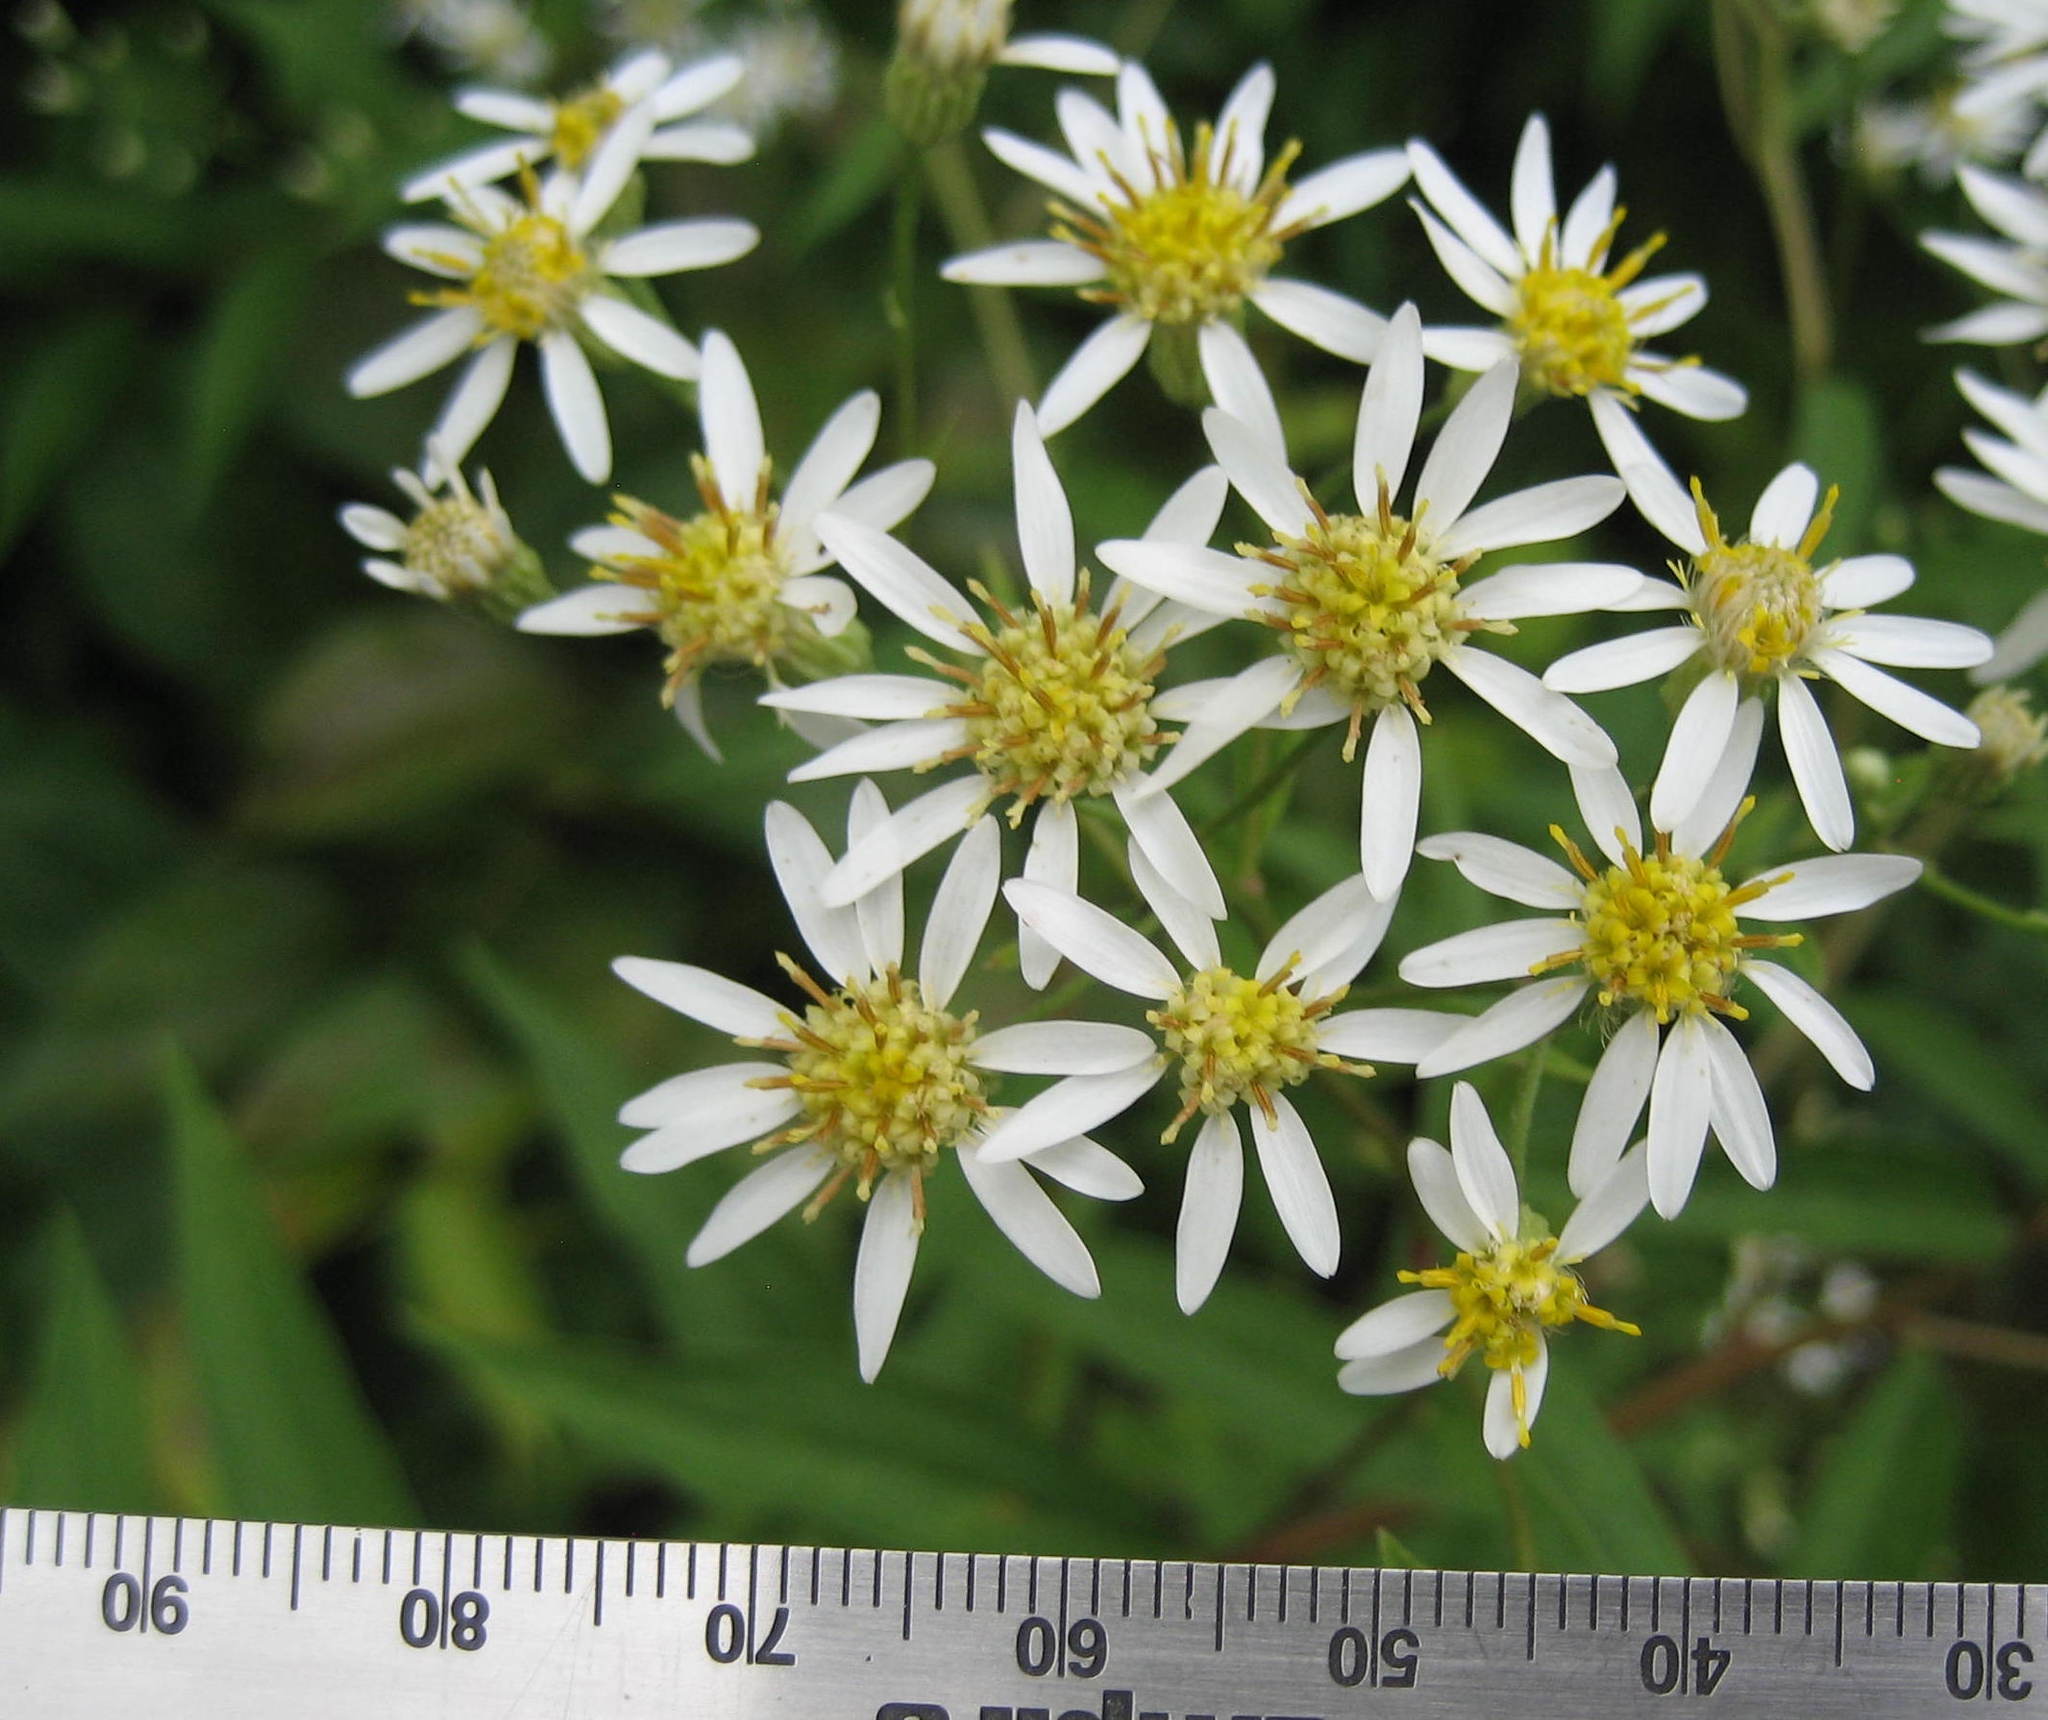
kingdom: Plantae
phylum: Tracheophyta
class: Magnoliopsida
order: Asterales
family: Asteraceae
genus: Doellingeria
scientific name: Doellingeria umbellata
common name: Flat-top white aster
